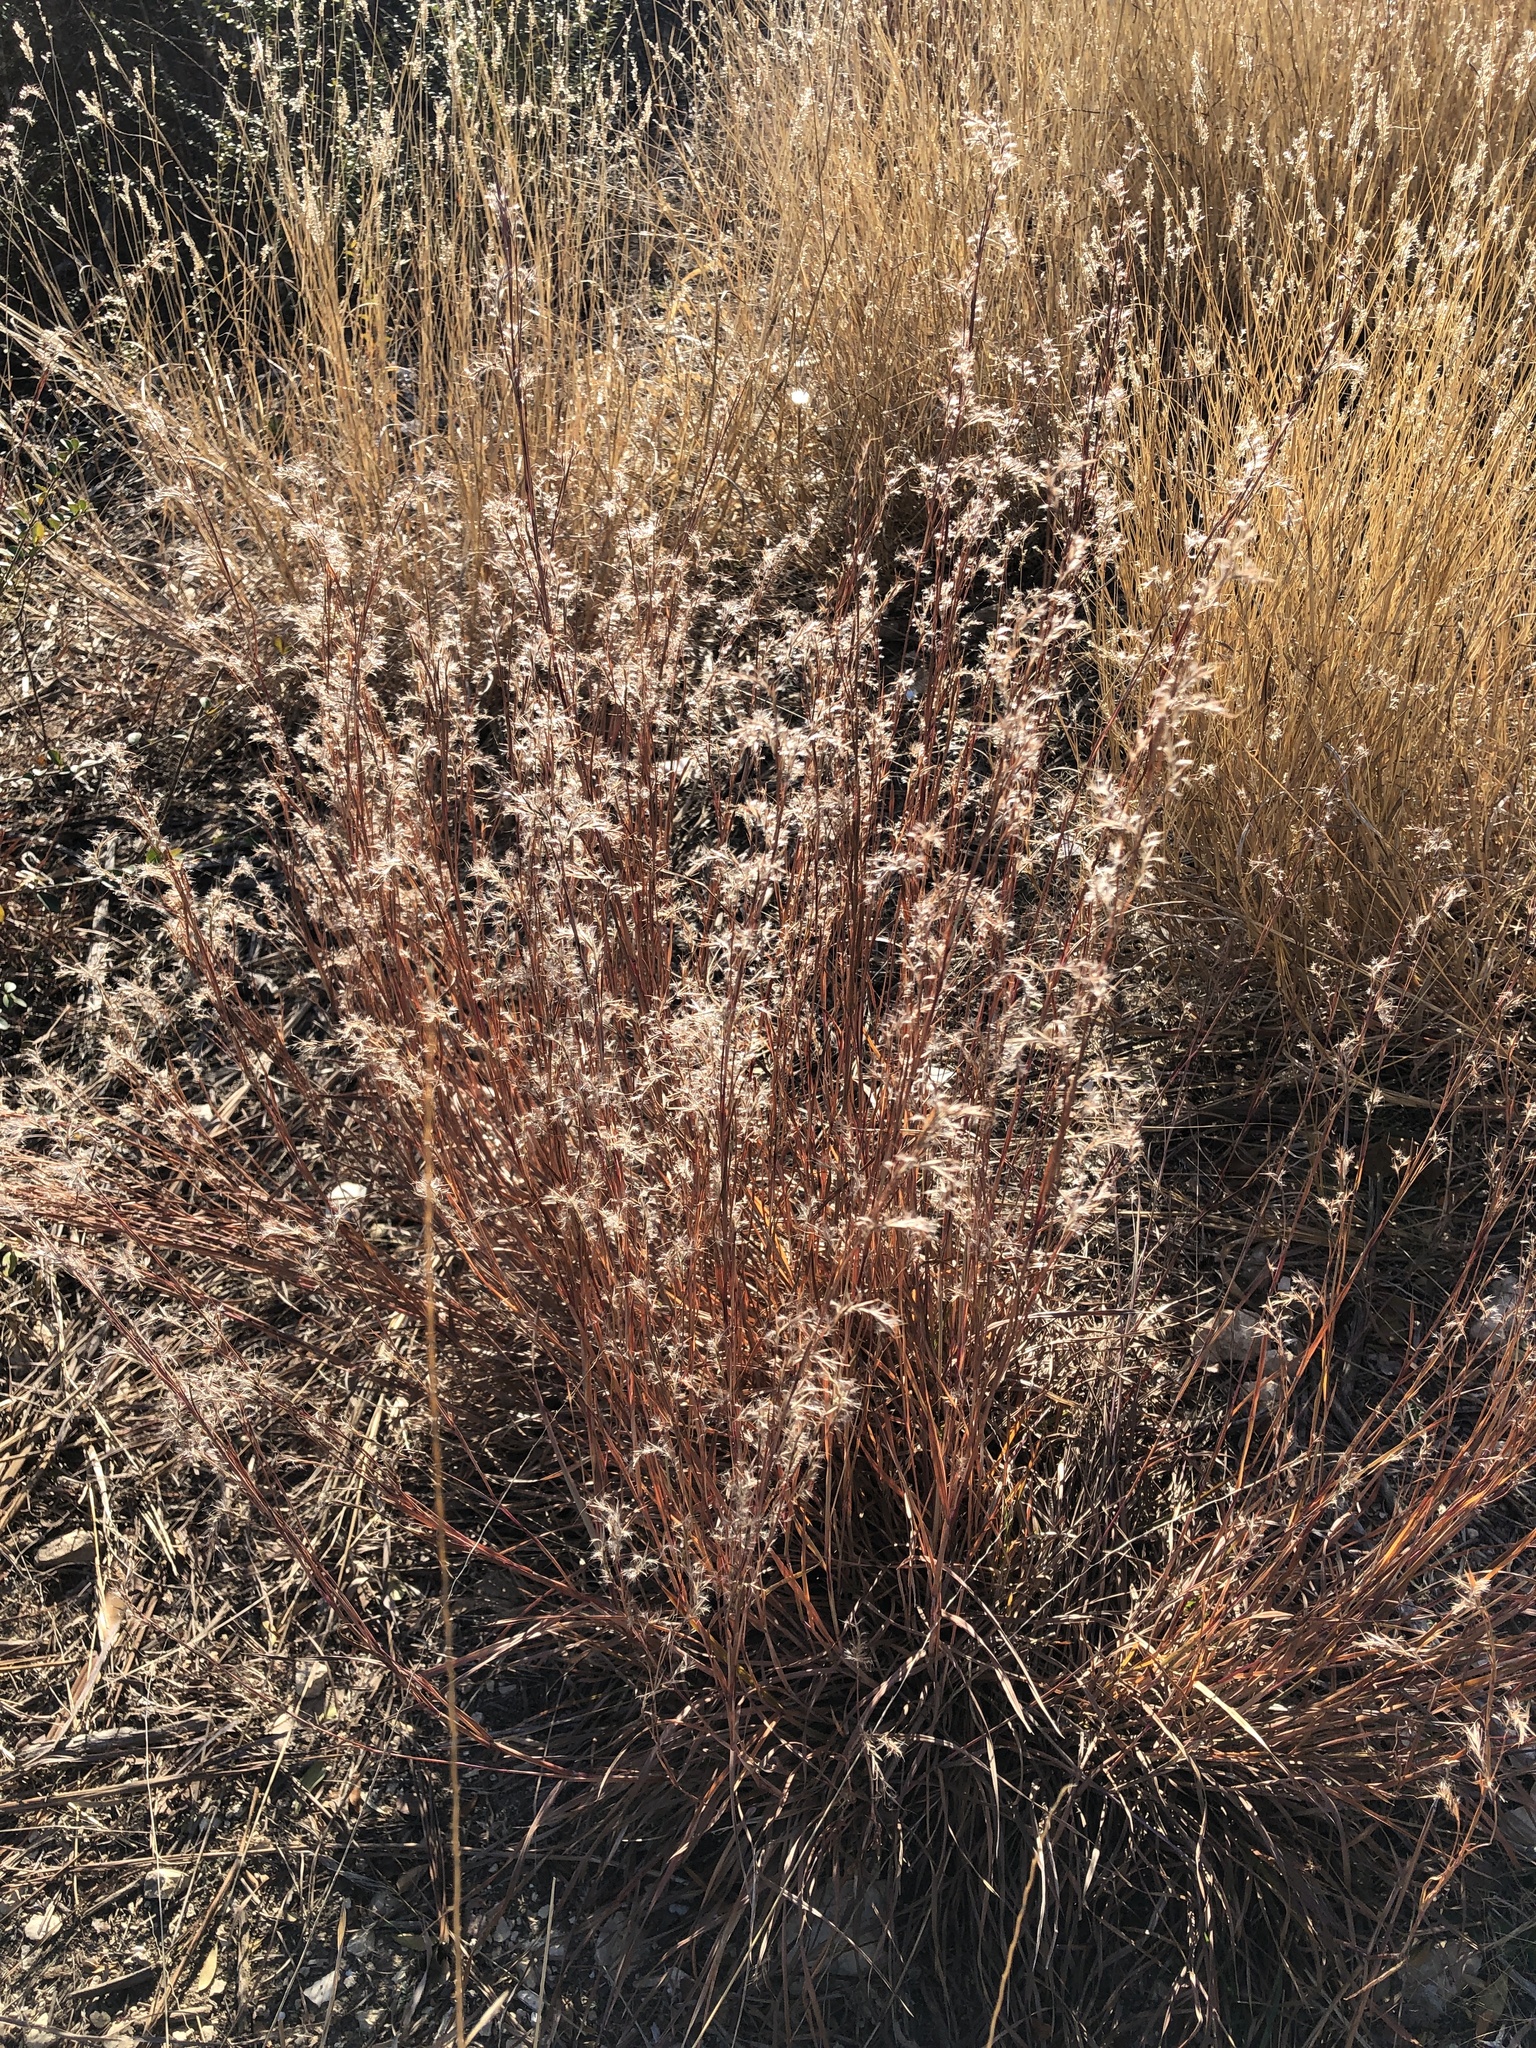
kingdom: Plantae
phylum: Tracheophyta
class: Liliopsida
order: Poales
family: Poaceae
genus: Schizachyrium
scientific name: Schizachyrium scoparium
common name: Little bluestem
